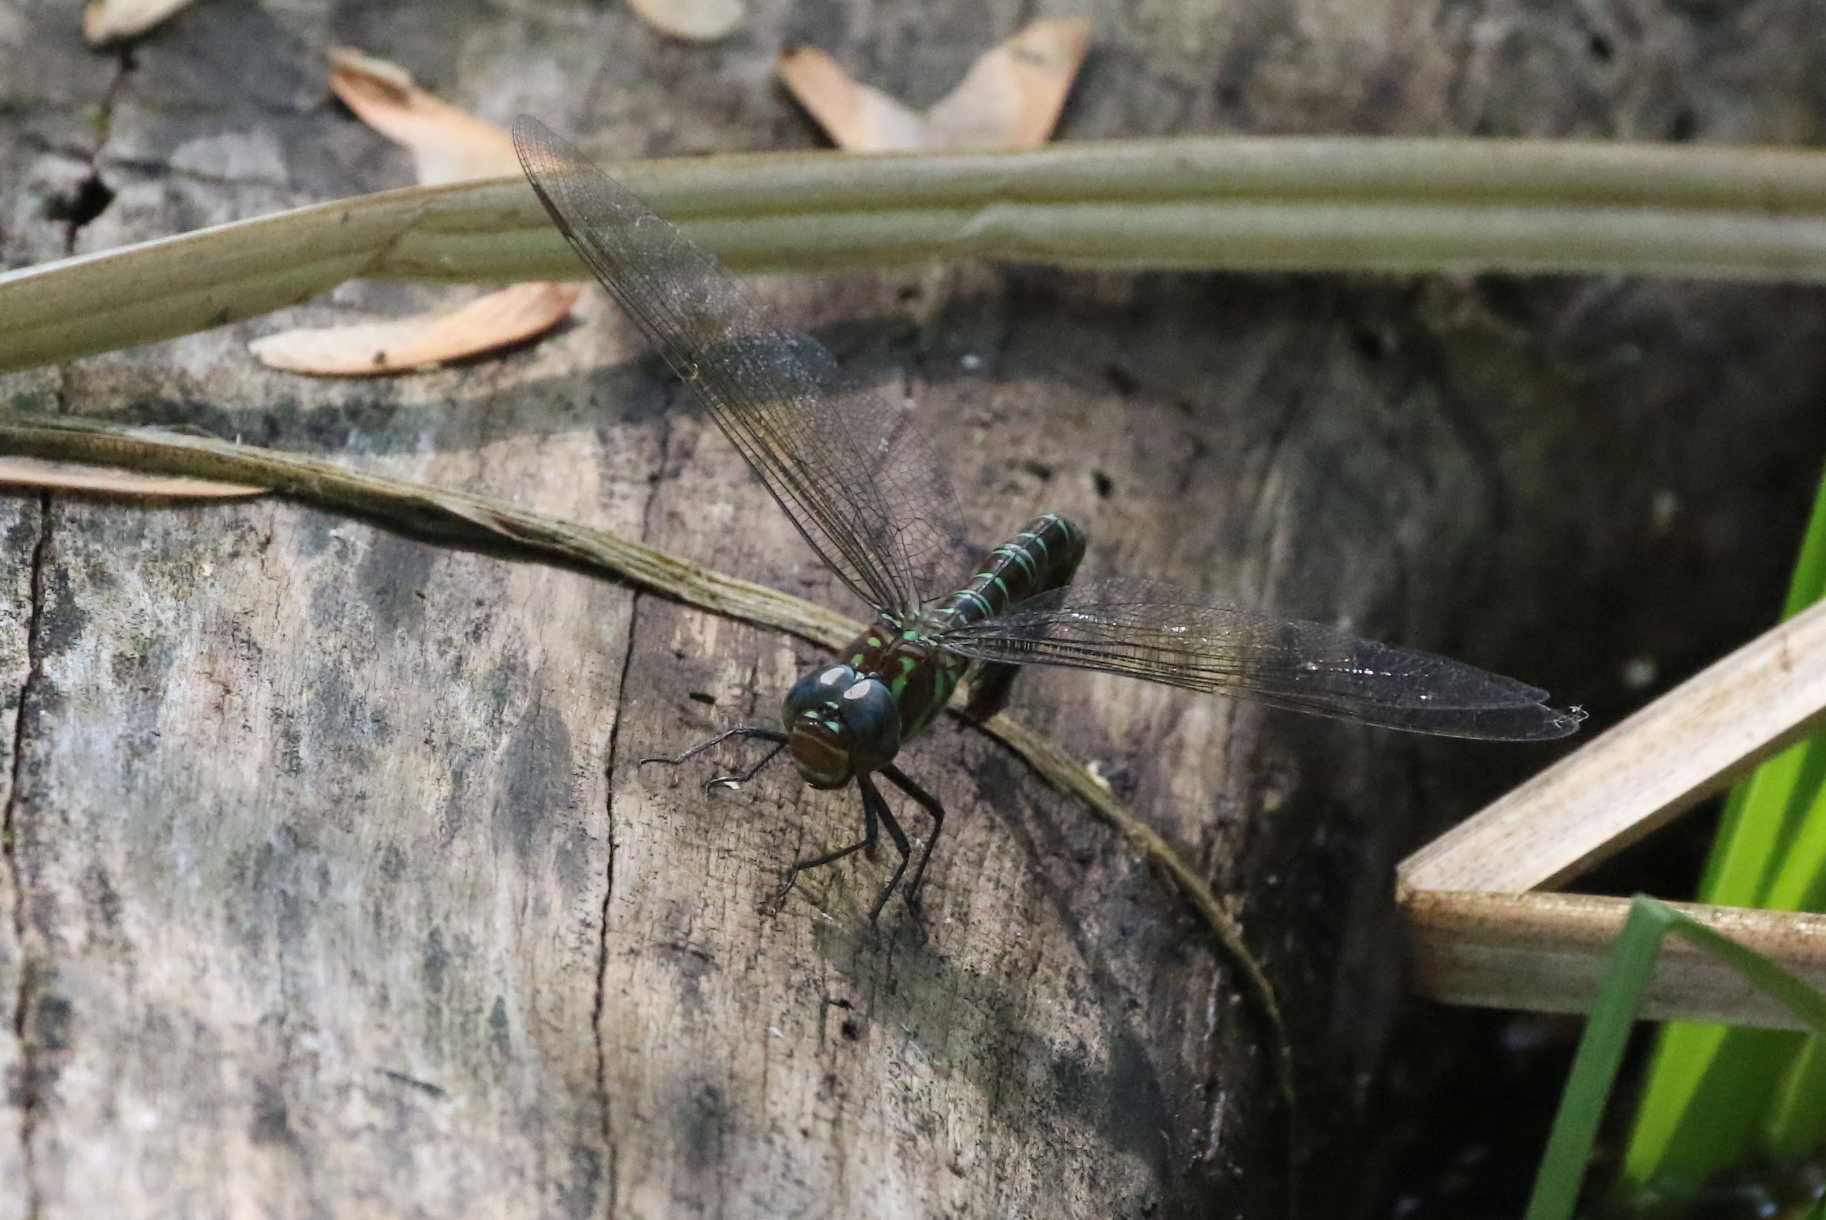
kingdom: Animalia
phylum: Arthropoda
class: Insecta
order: Odonata
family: Aeshnidae
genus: Epiaeschna
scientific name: Epiaeschna heros
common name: Swamp darner
